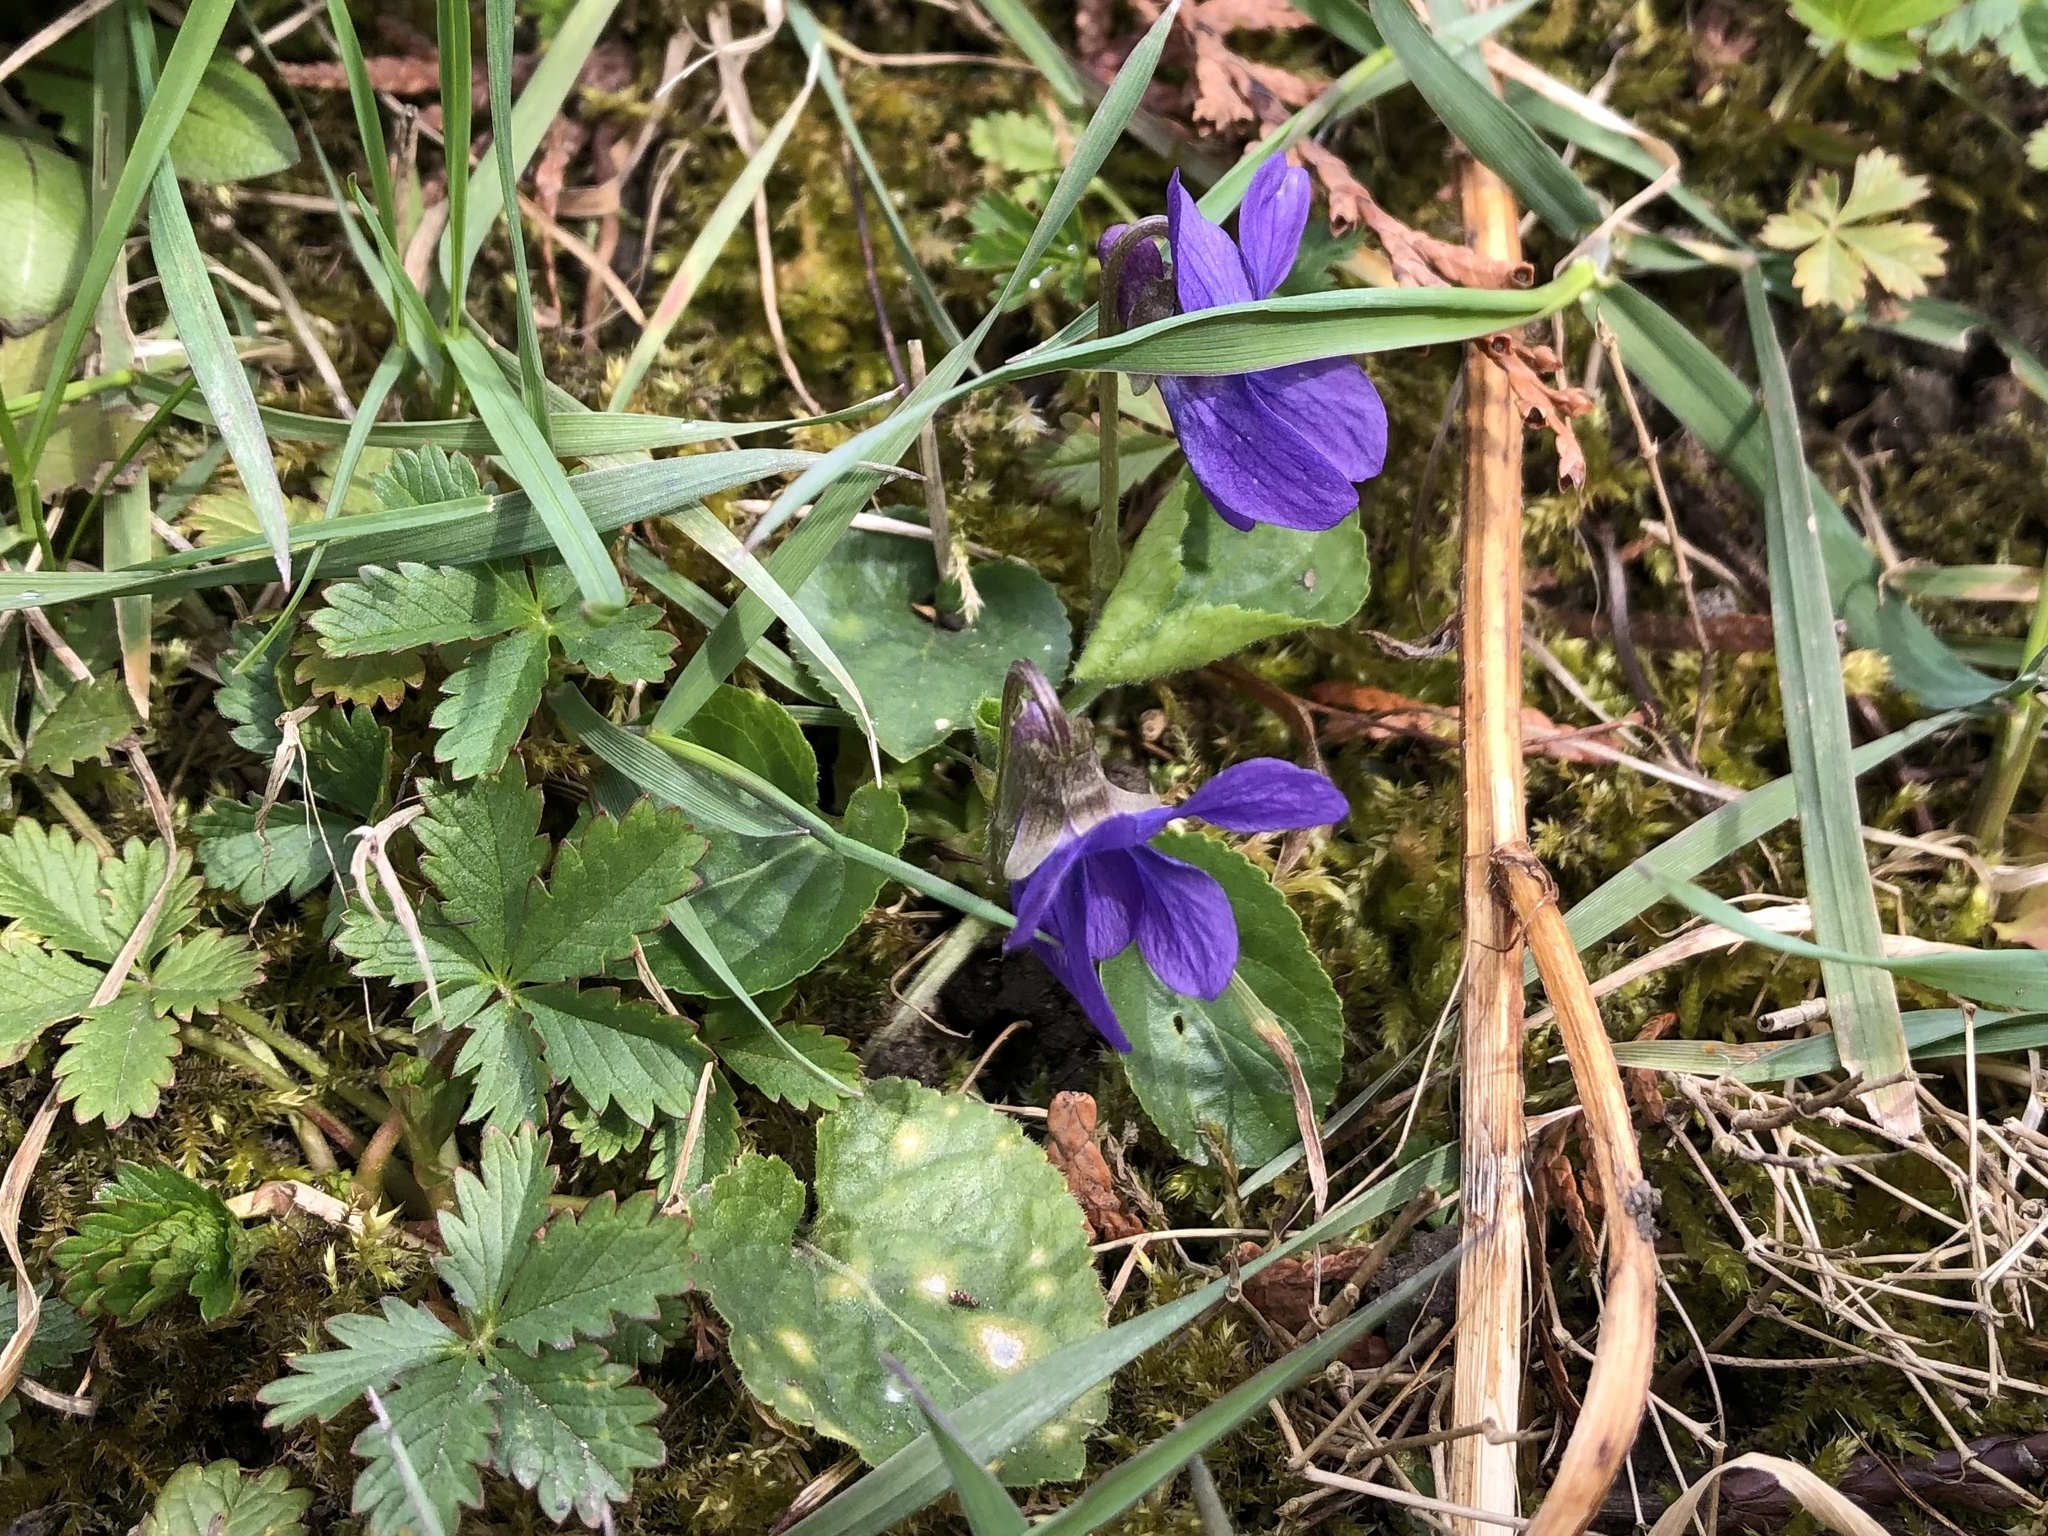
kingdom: Plantae
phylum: Tracheophyta
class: Magnoliopsida
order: Malpighiales
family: Violaceae
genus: Viola
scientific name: Viola odorata
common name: Sweet violet
